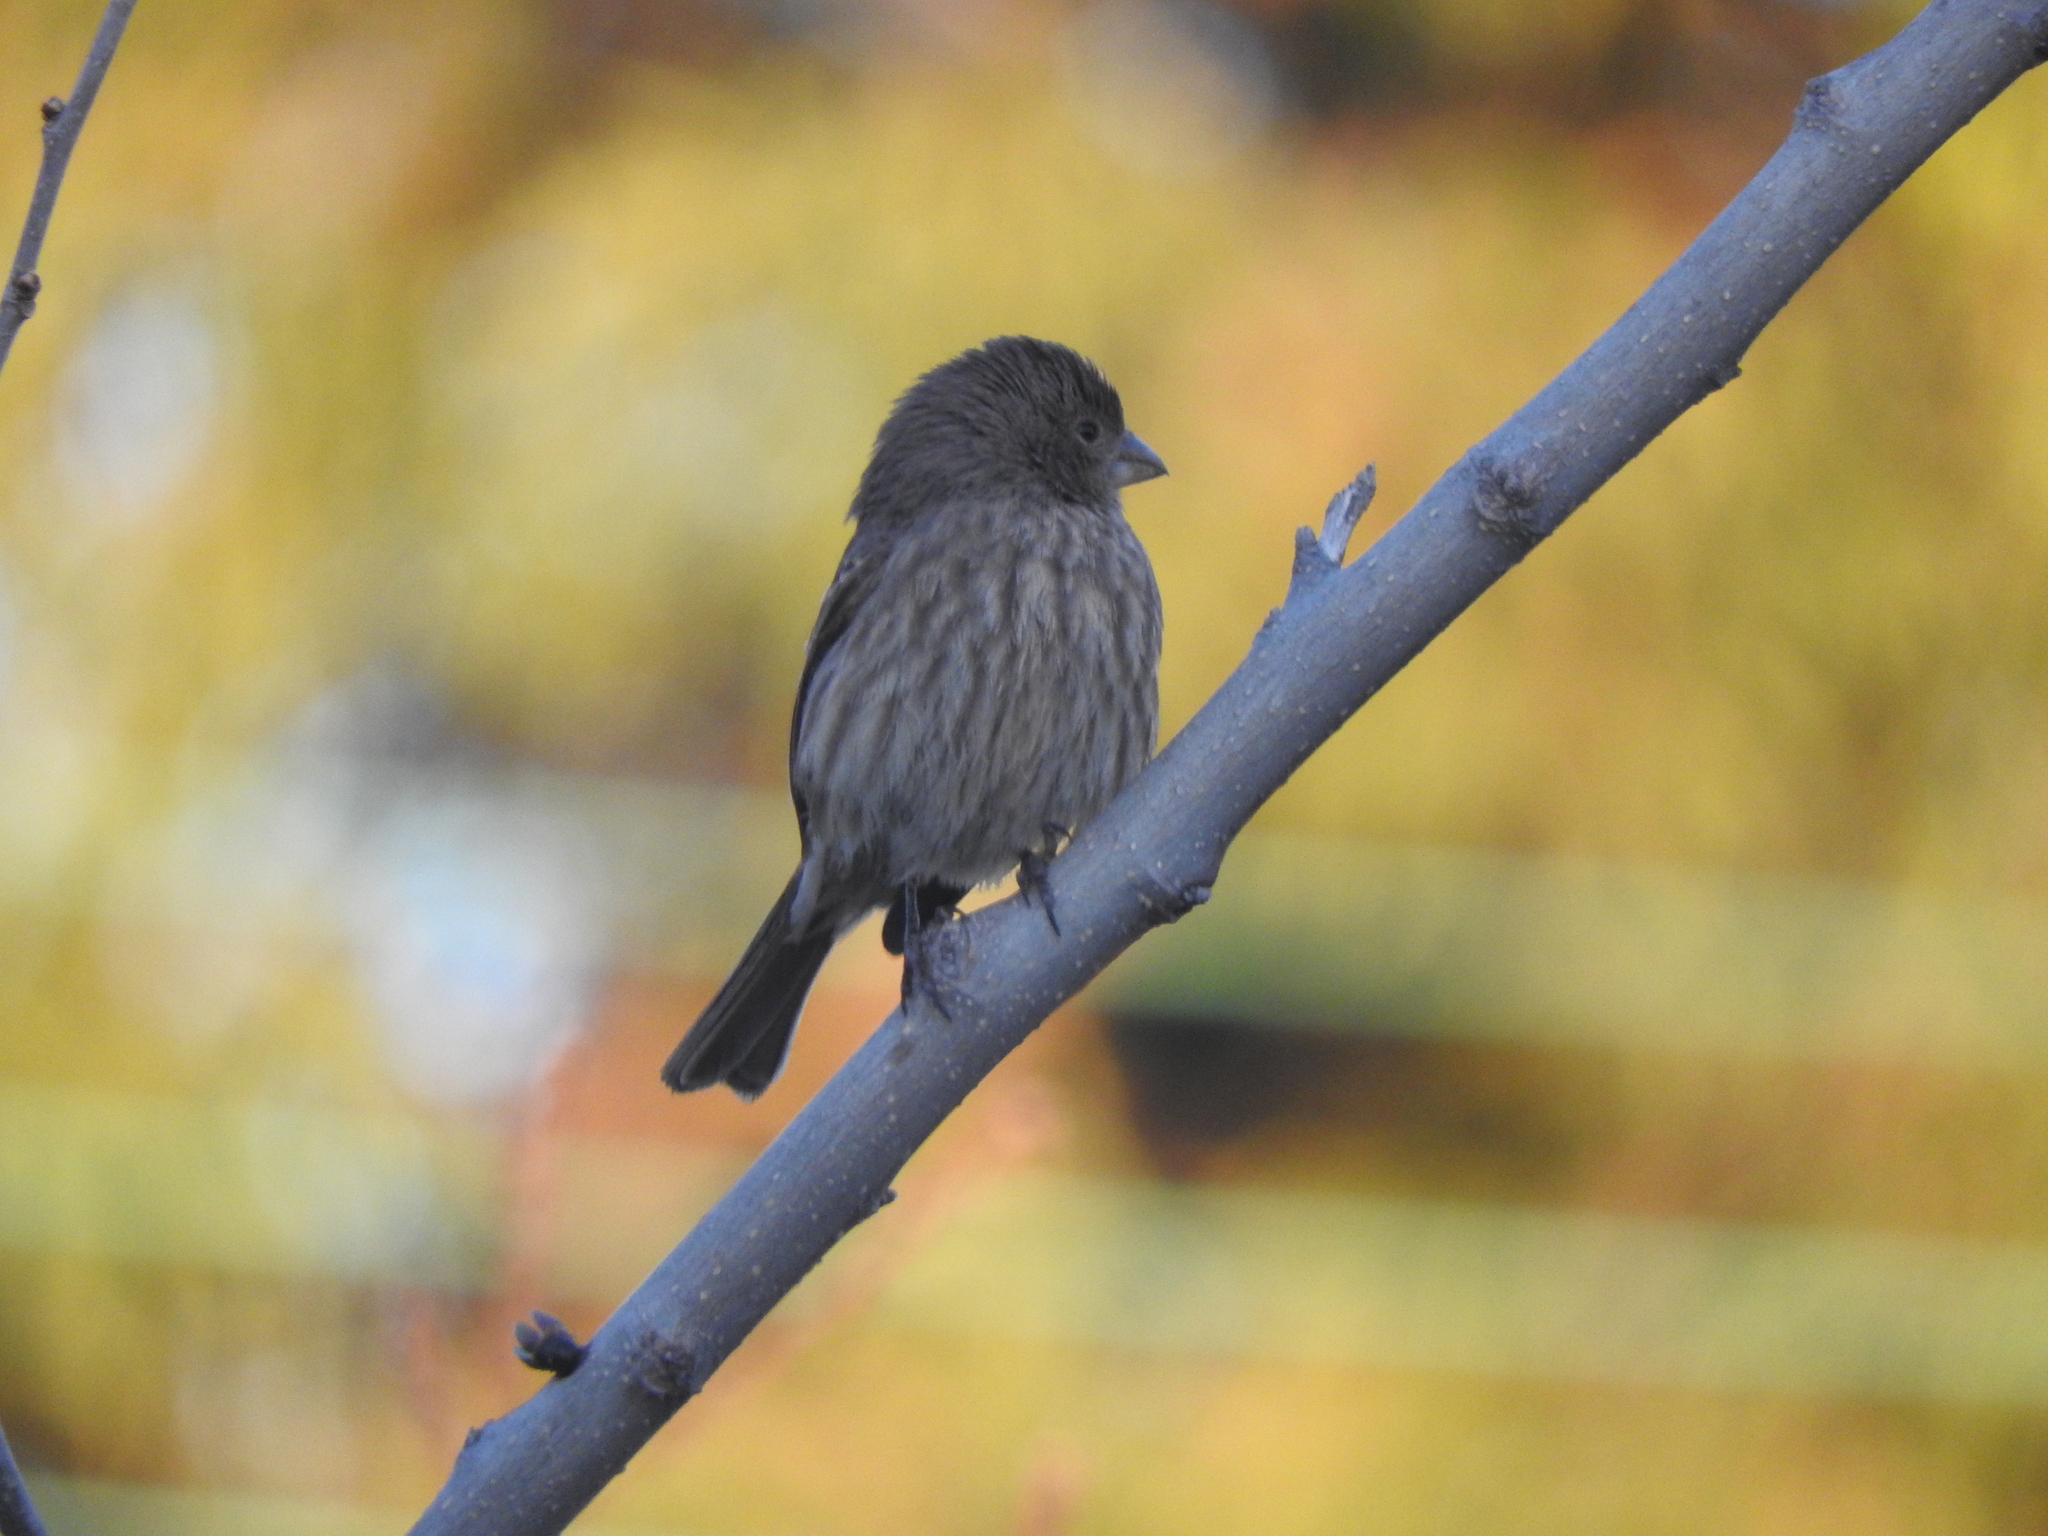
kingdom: Animalia
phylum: Chordata
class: Aves
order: Passeriformes
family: Fringillidae
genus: Haemorhous
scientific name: Haemorhous mexicanus
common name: House finch
